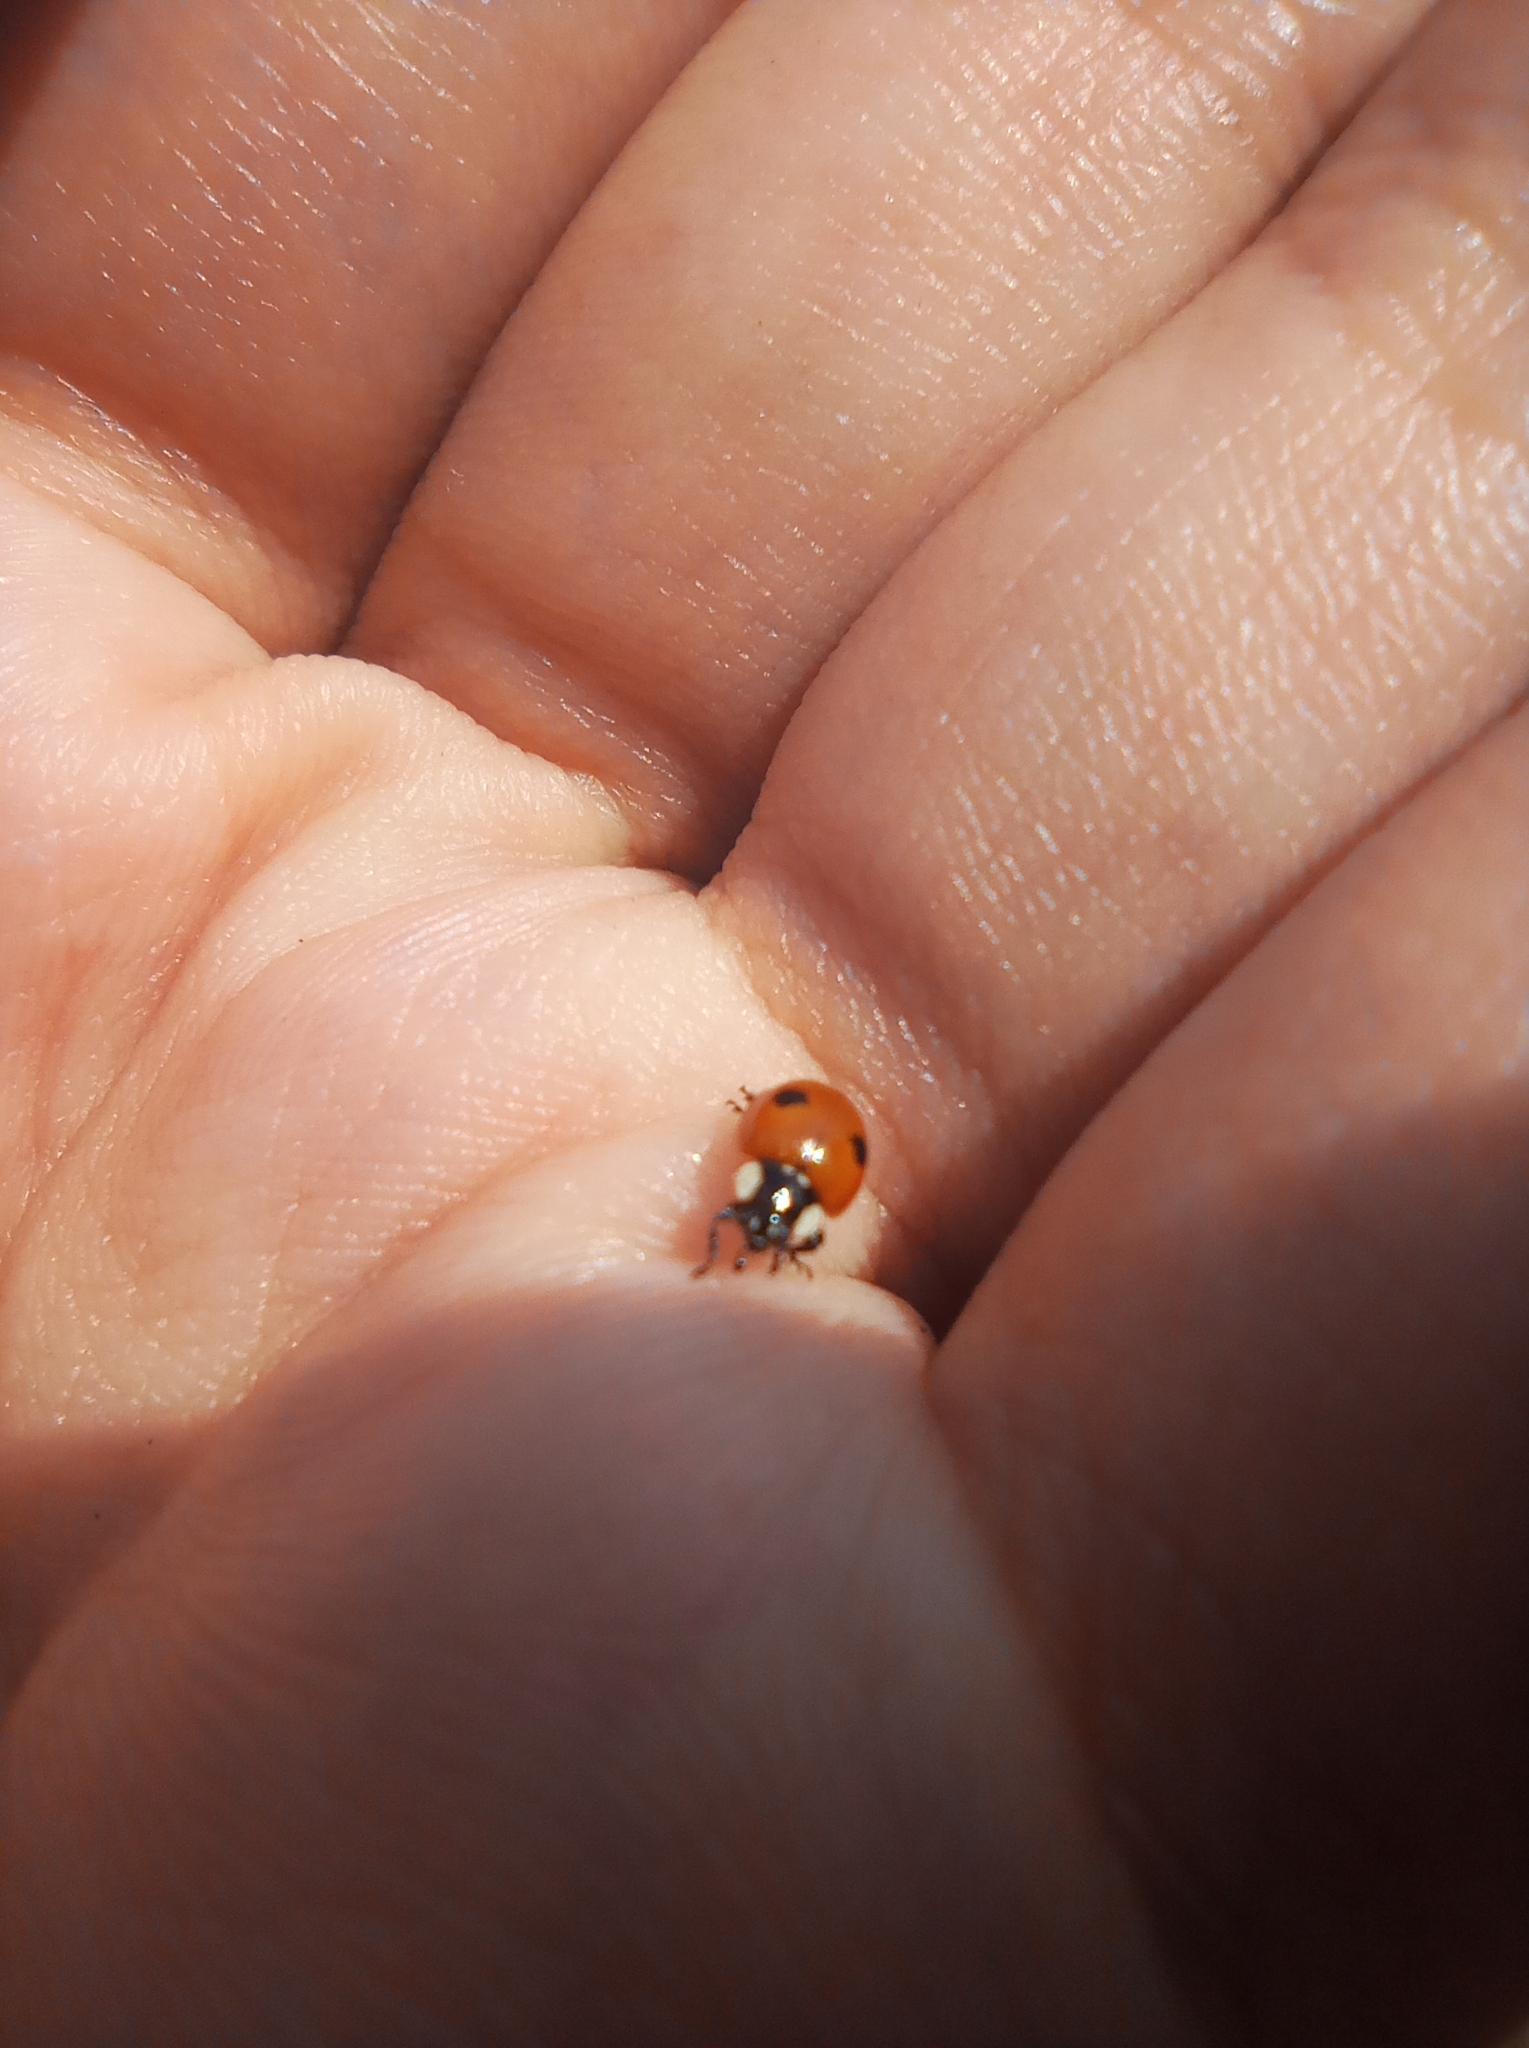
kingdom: Animalia
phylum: Arthropoda
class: Insecta
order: Coleoptera
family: Coccinellidae
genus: Adalia
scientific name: Adalia bipunctata
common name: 2-spot ladybird
